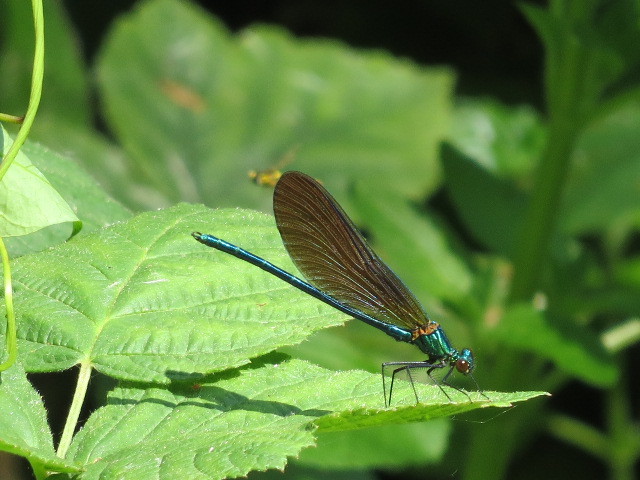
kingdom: Animalia
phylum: Arthropoda
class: Insecta
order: Odonata
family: Calopterygidae
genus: Calopteryx
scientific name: Calopteryx virgo
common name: Beautiful demoiselle
